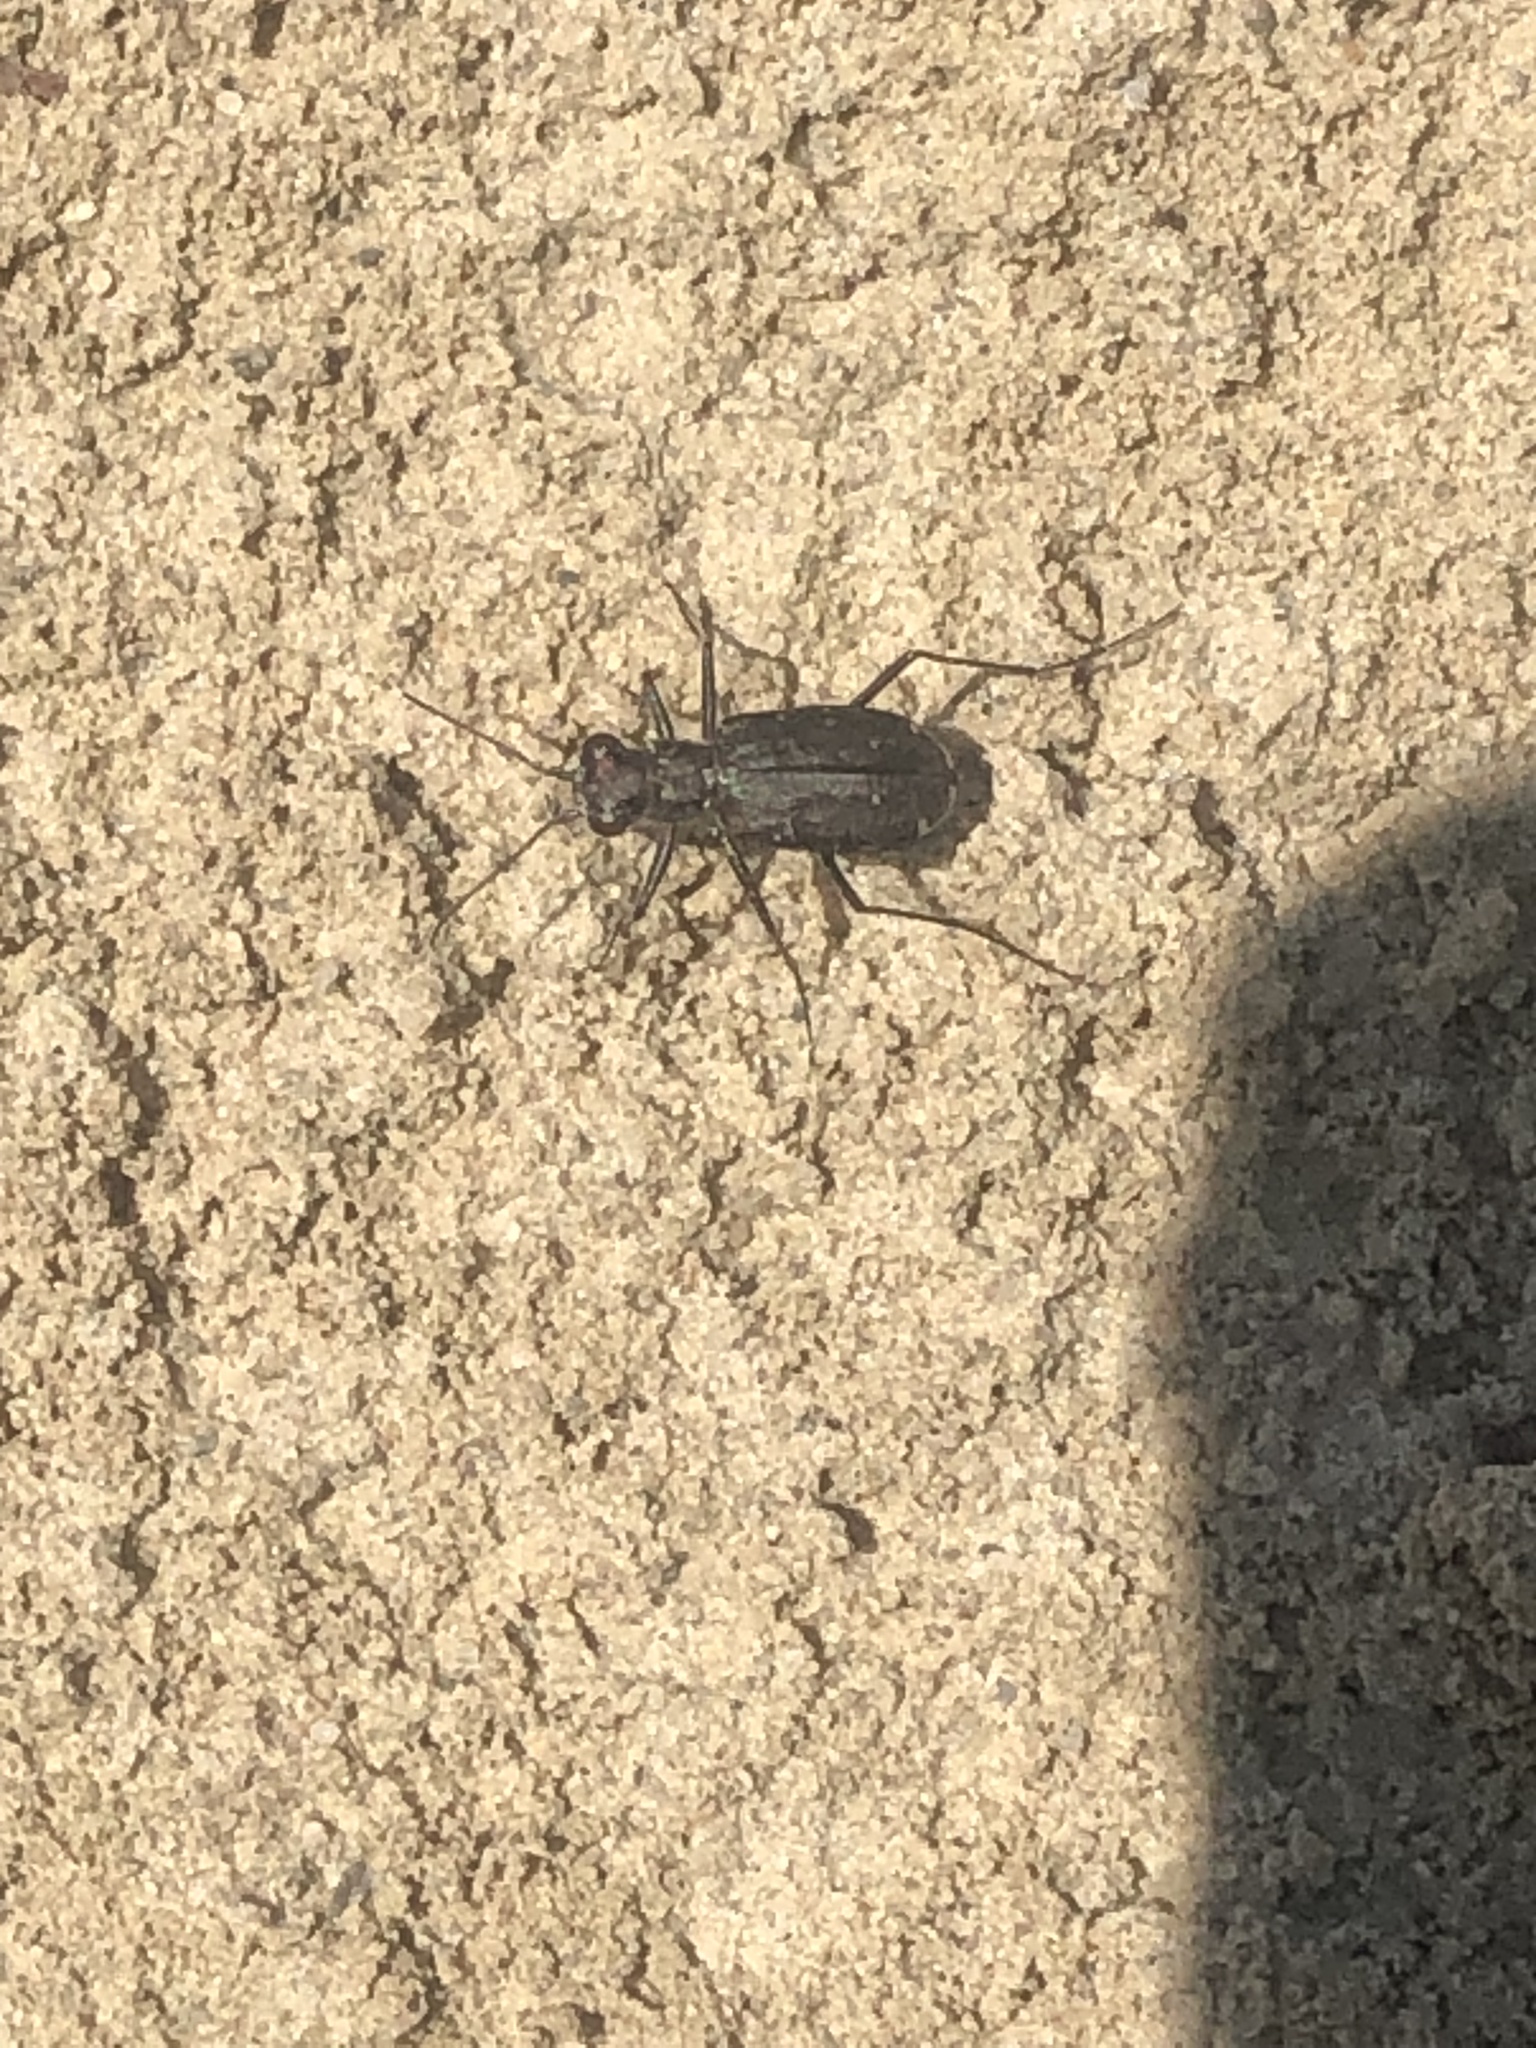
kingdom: Animalia
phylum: Arthropoda
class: Insecta
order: Coleoptera
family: Carabidae
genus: Cicindela
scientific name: Cicindela punctulata
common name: Punctured tiger beetle
